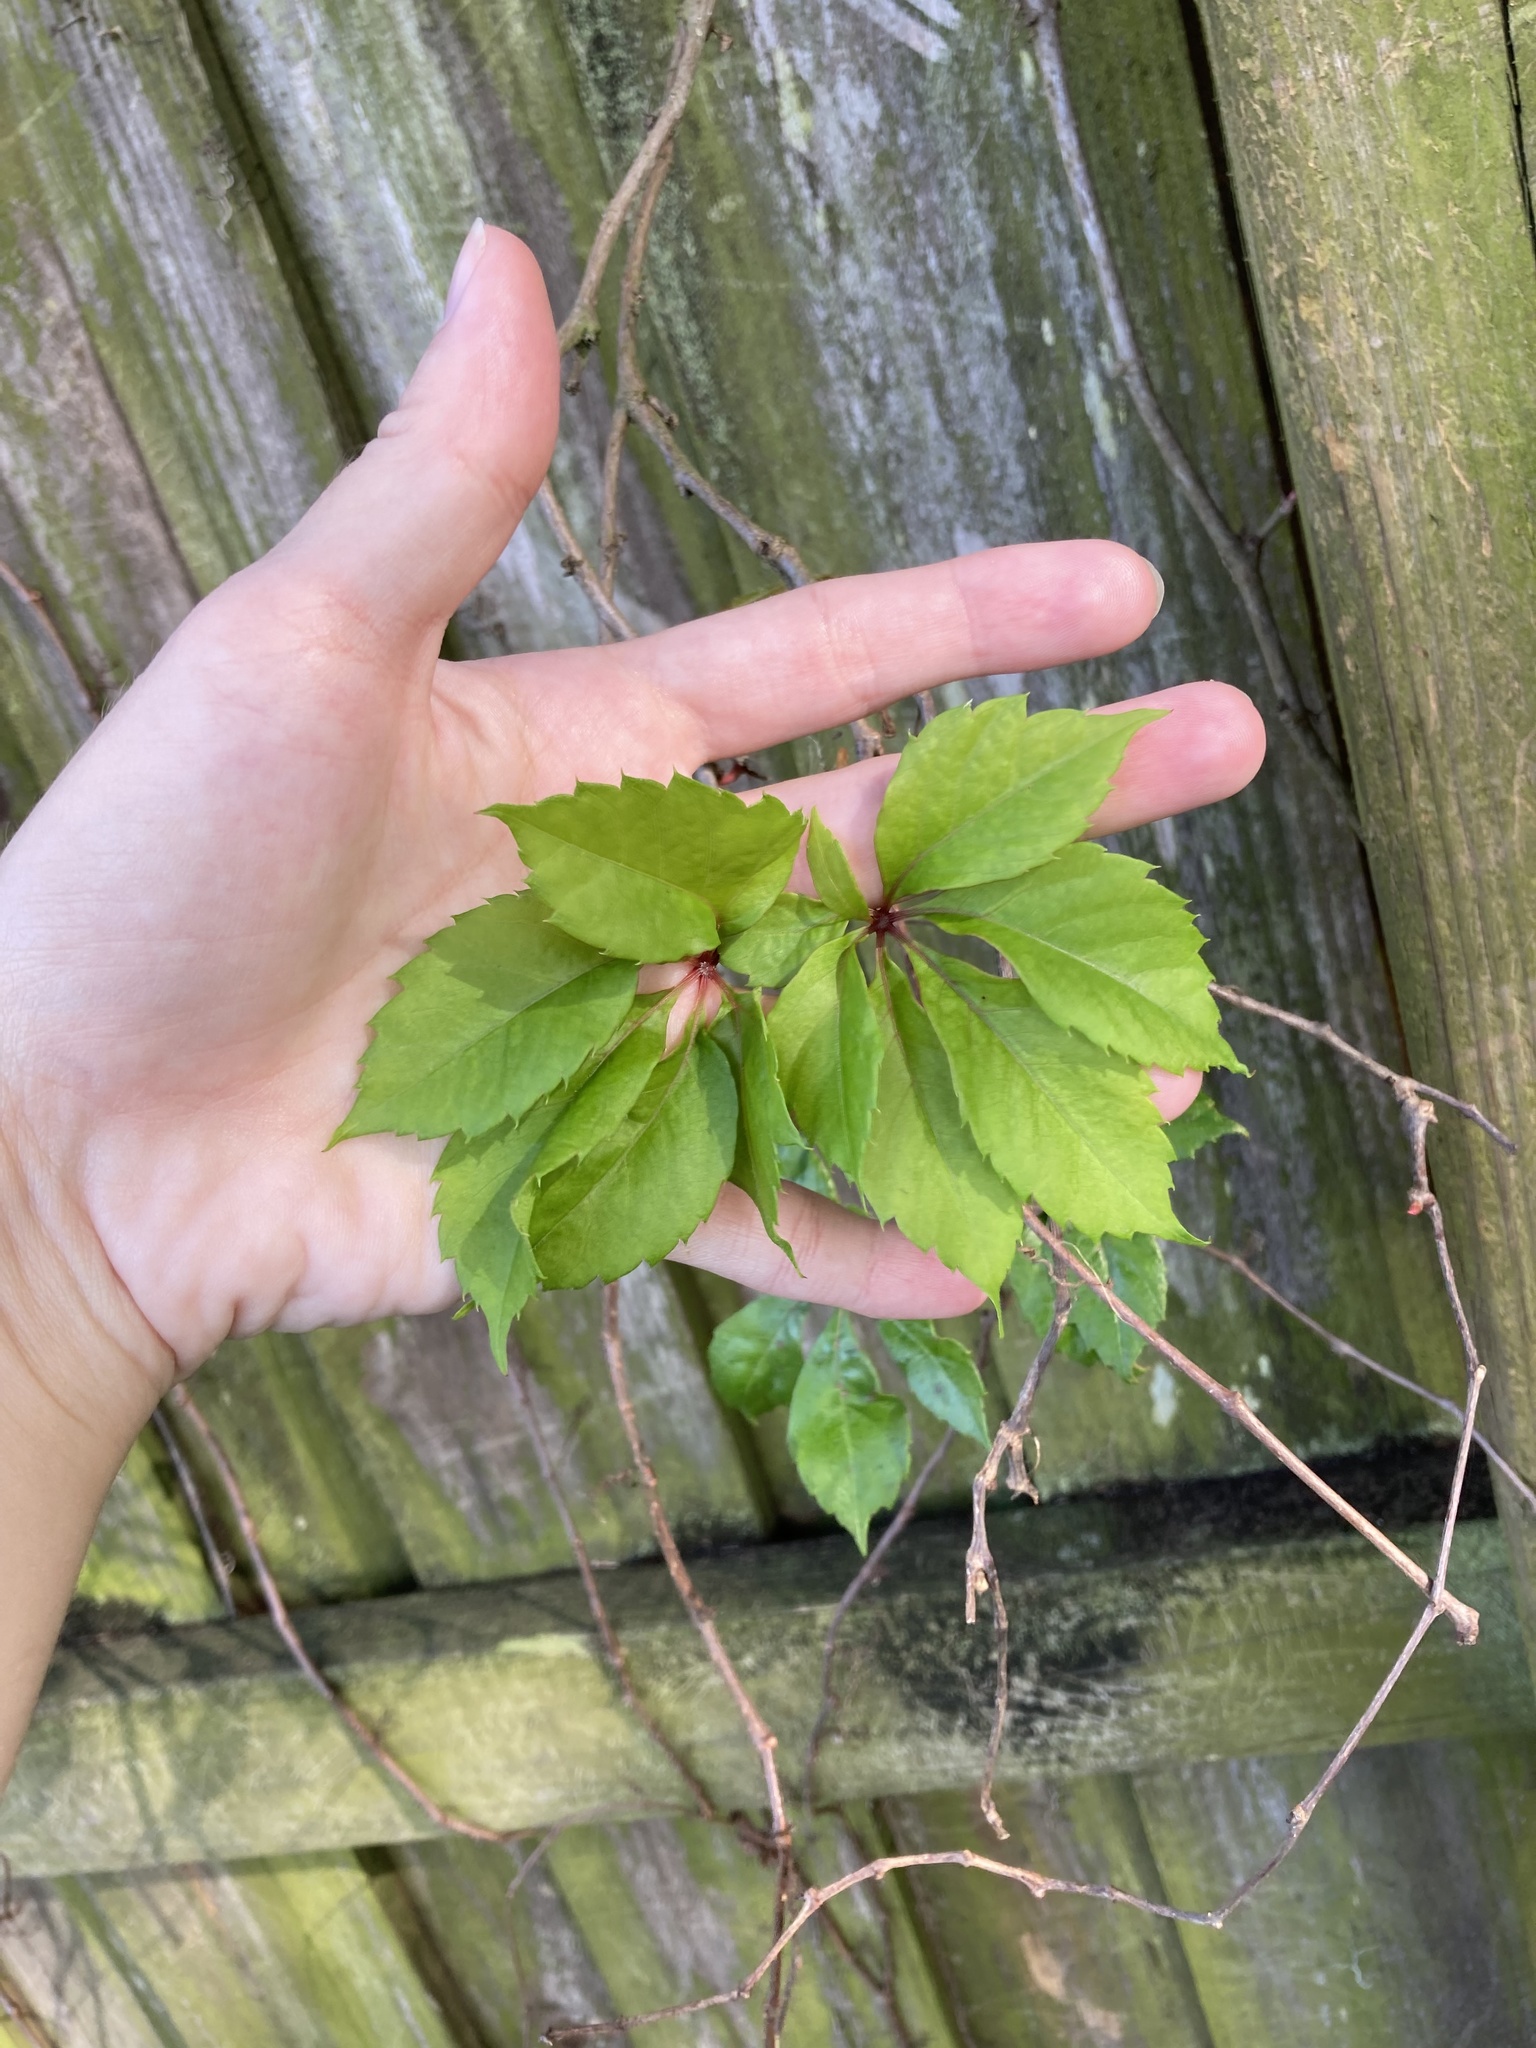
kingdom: Plantae
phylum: Tracheophyta
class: Magnoliopsida
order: Vitales
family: Vitaceae
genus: Parthenocissus
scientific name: Parthenocissus quinquefolia
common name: Virginia-creeper
